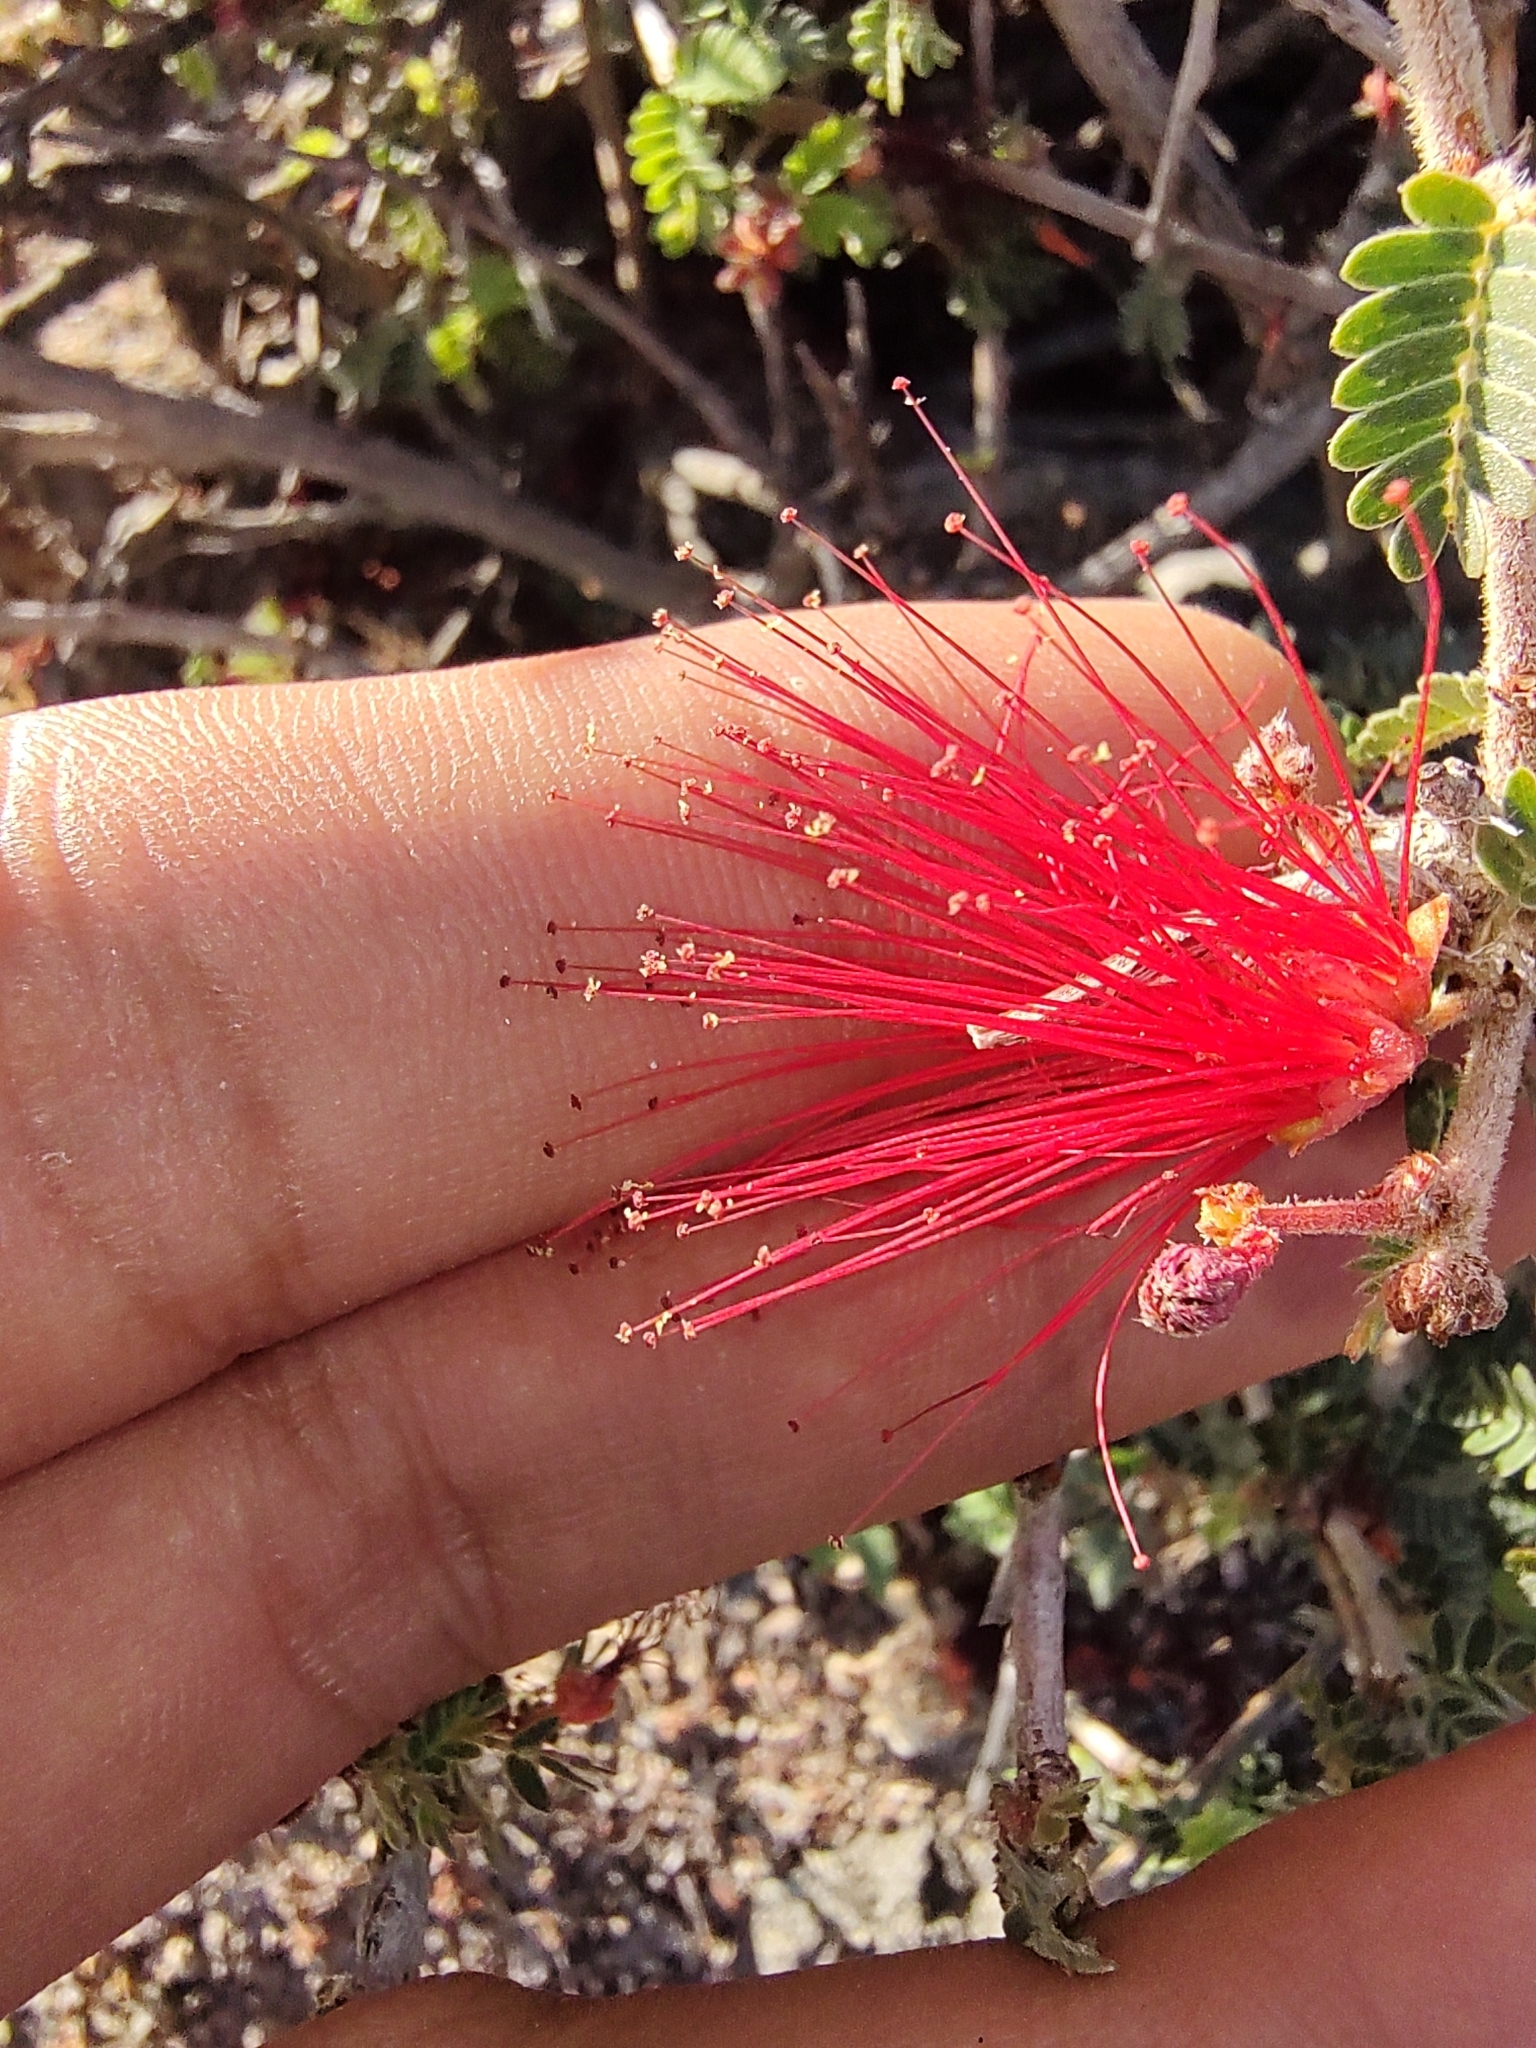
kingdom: Plantae
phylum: Tracheophyta
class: Magnoliopsida
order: Fabales
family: Fabaceae
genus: Calliandra
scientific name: Calliandra californica
